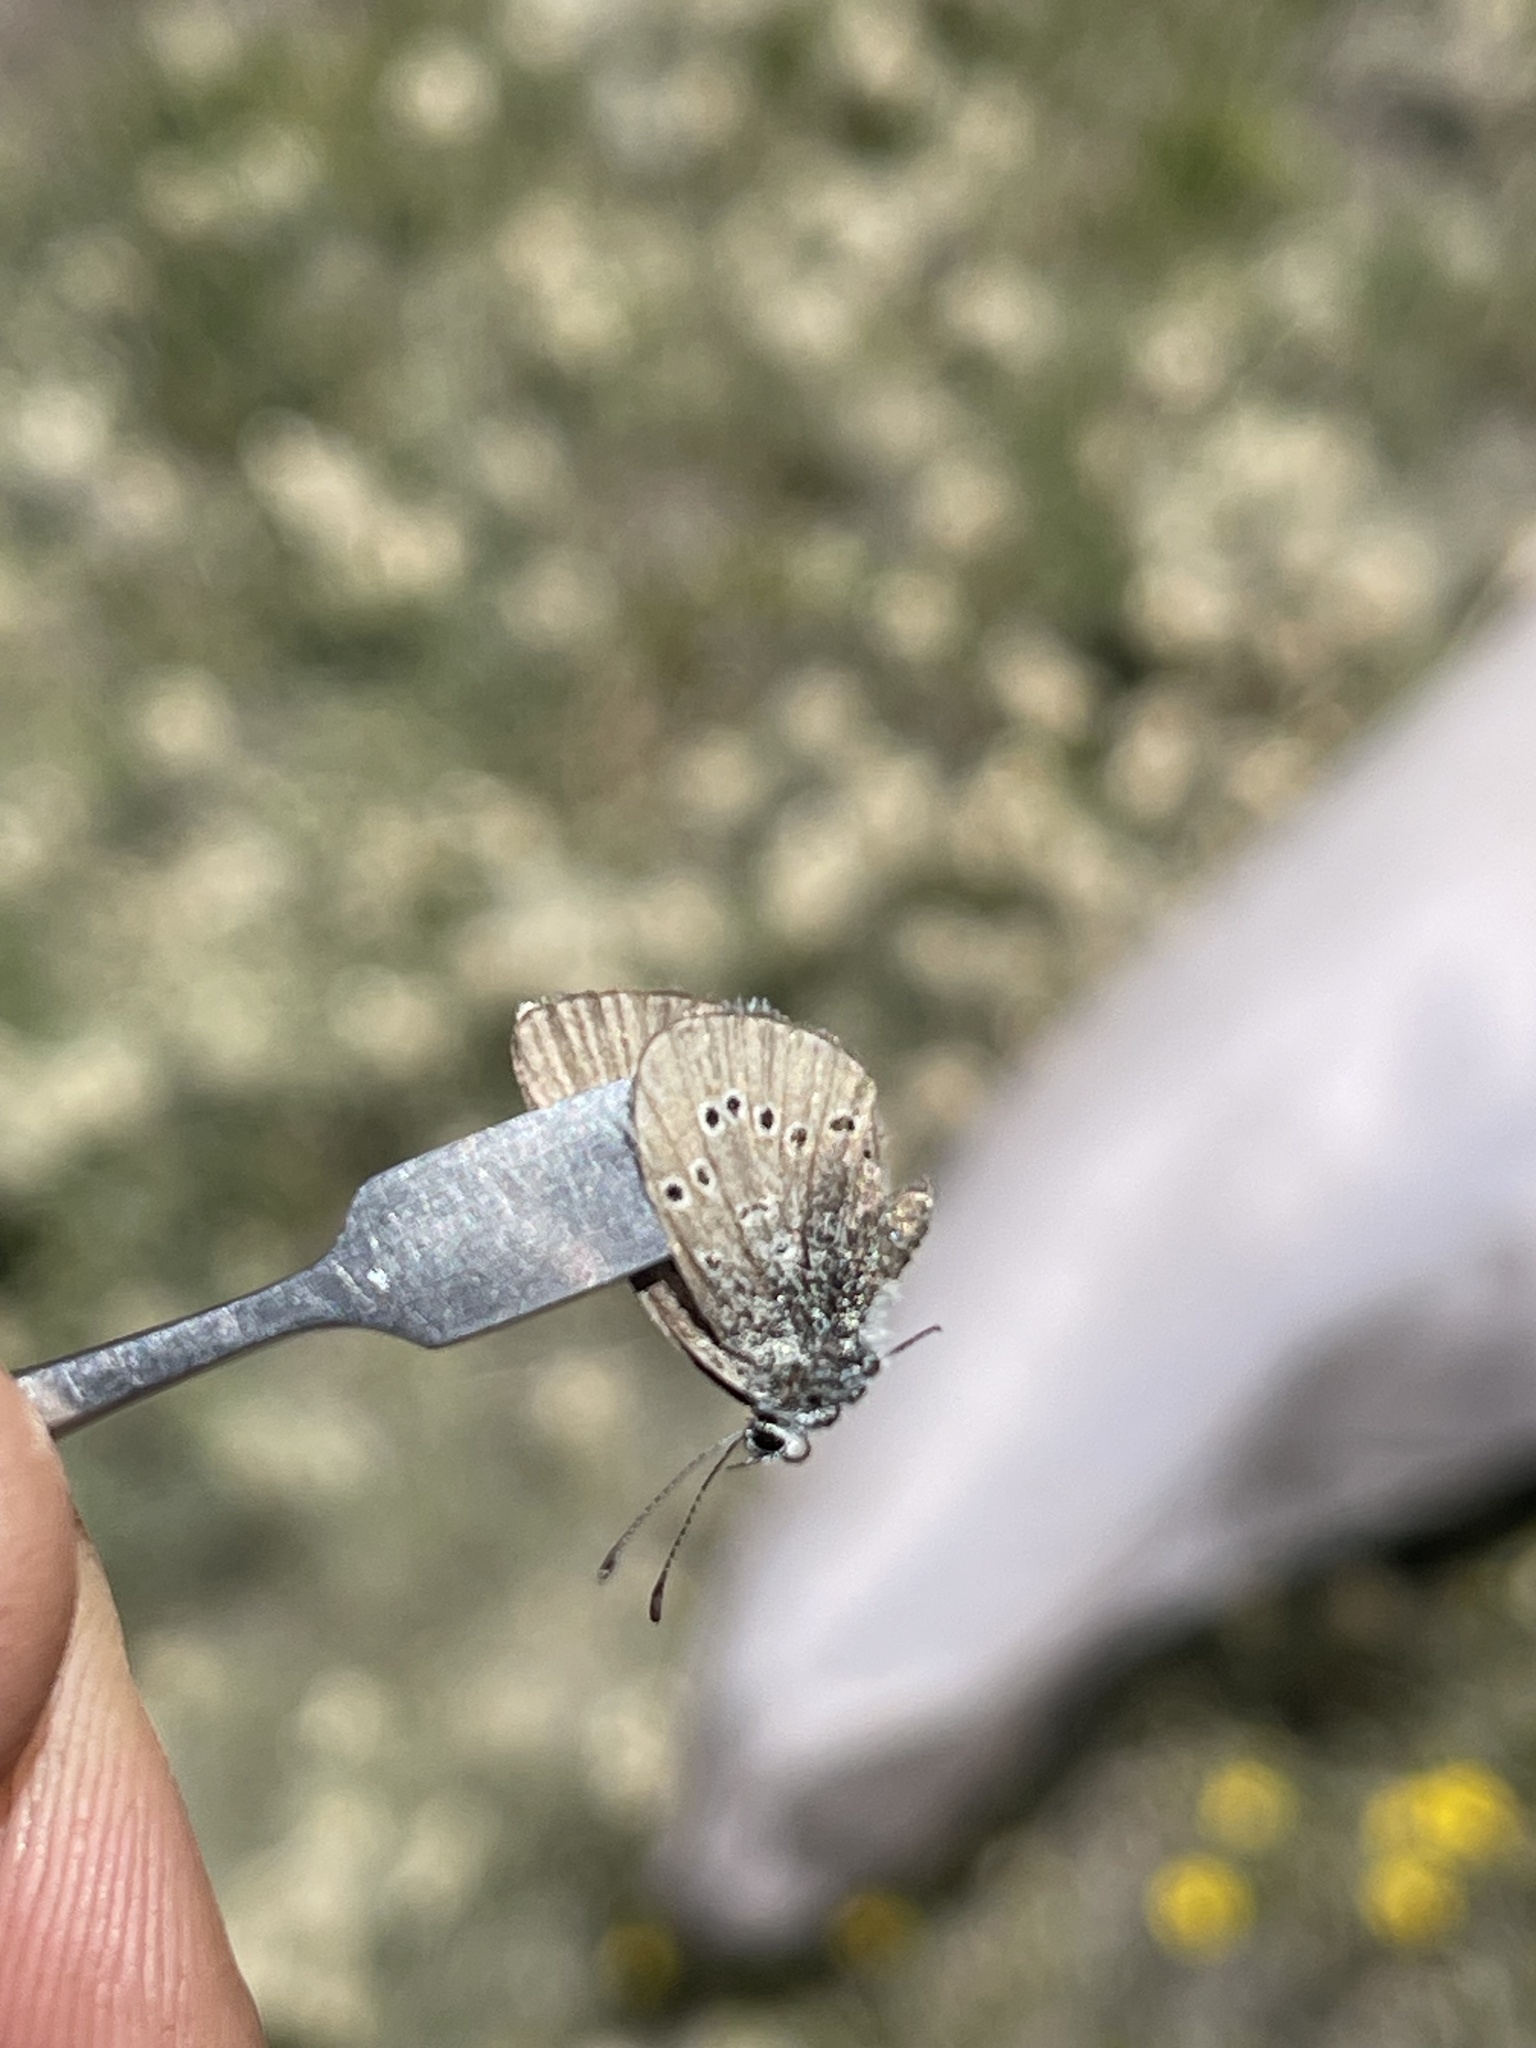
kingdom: Animalia
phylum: Arthropoda
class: Insecta
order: Lepidoptera
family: Lycaenidae
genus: Glaucopsyche
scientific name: Glaucopsyche lygdamus
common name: Silvery blue
